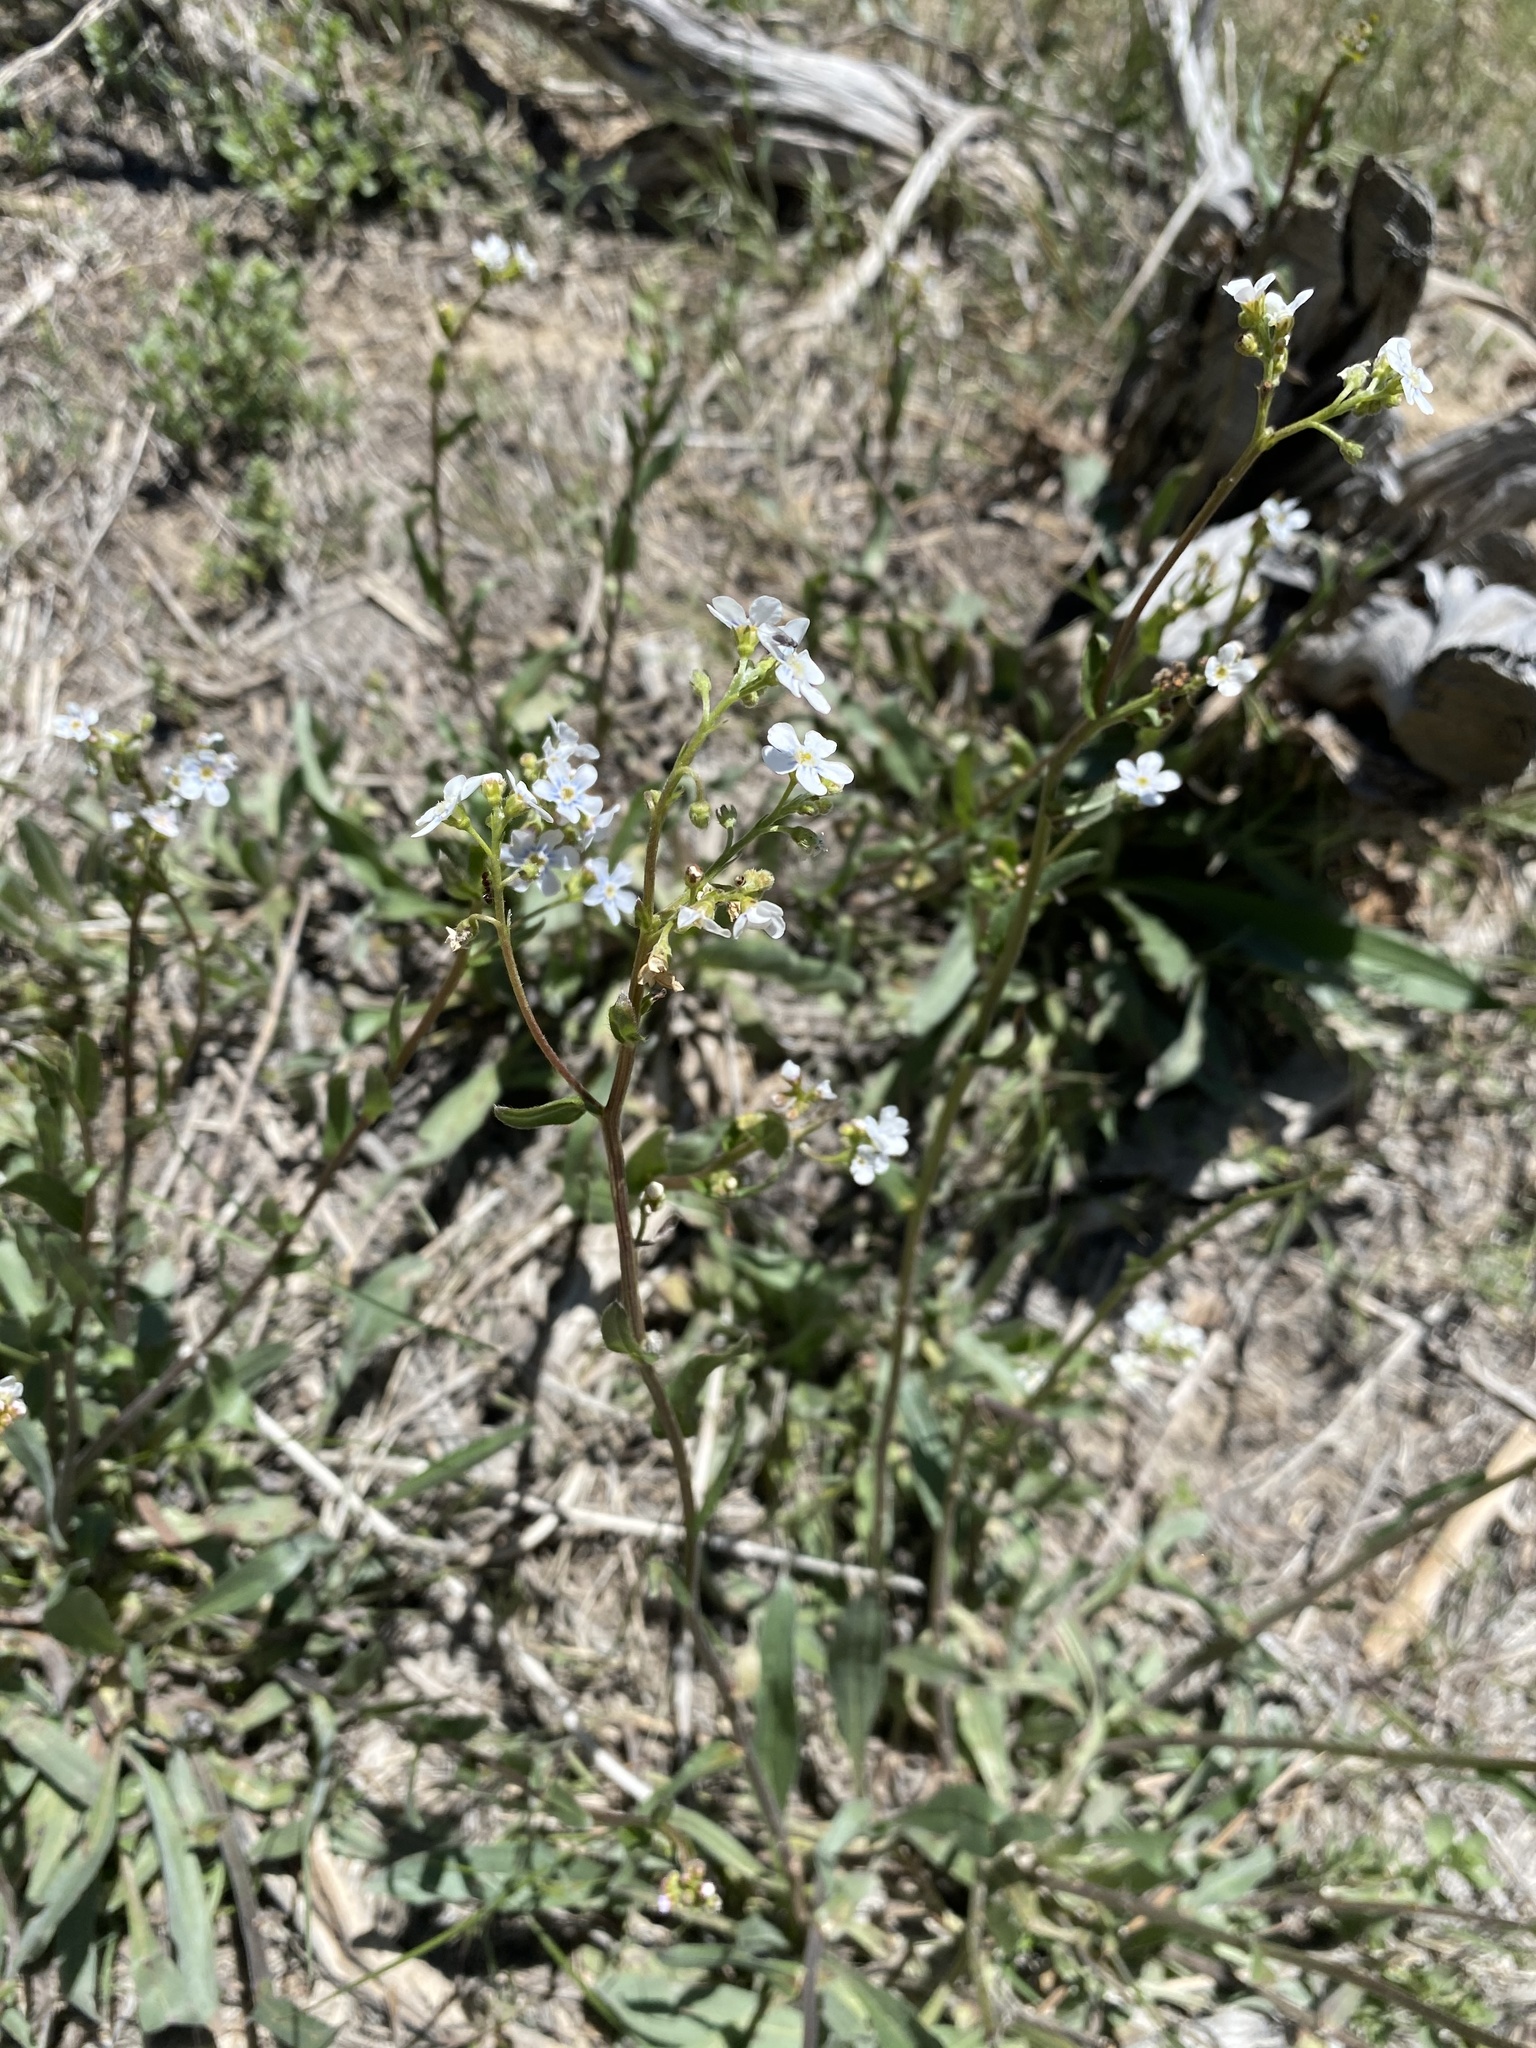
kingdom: Plantae
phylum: Tracheophyta
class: Magnoliopsida
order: Boraginales
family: Boraginaceae
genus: Hackelia
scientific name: Hackelia patens
